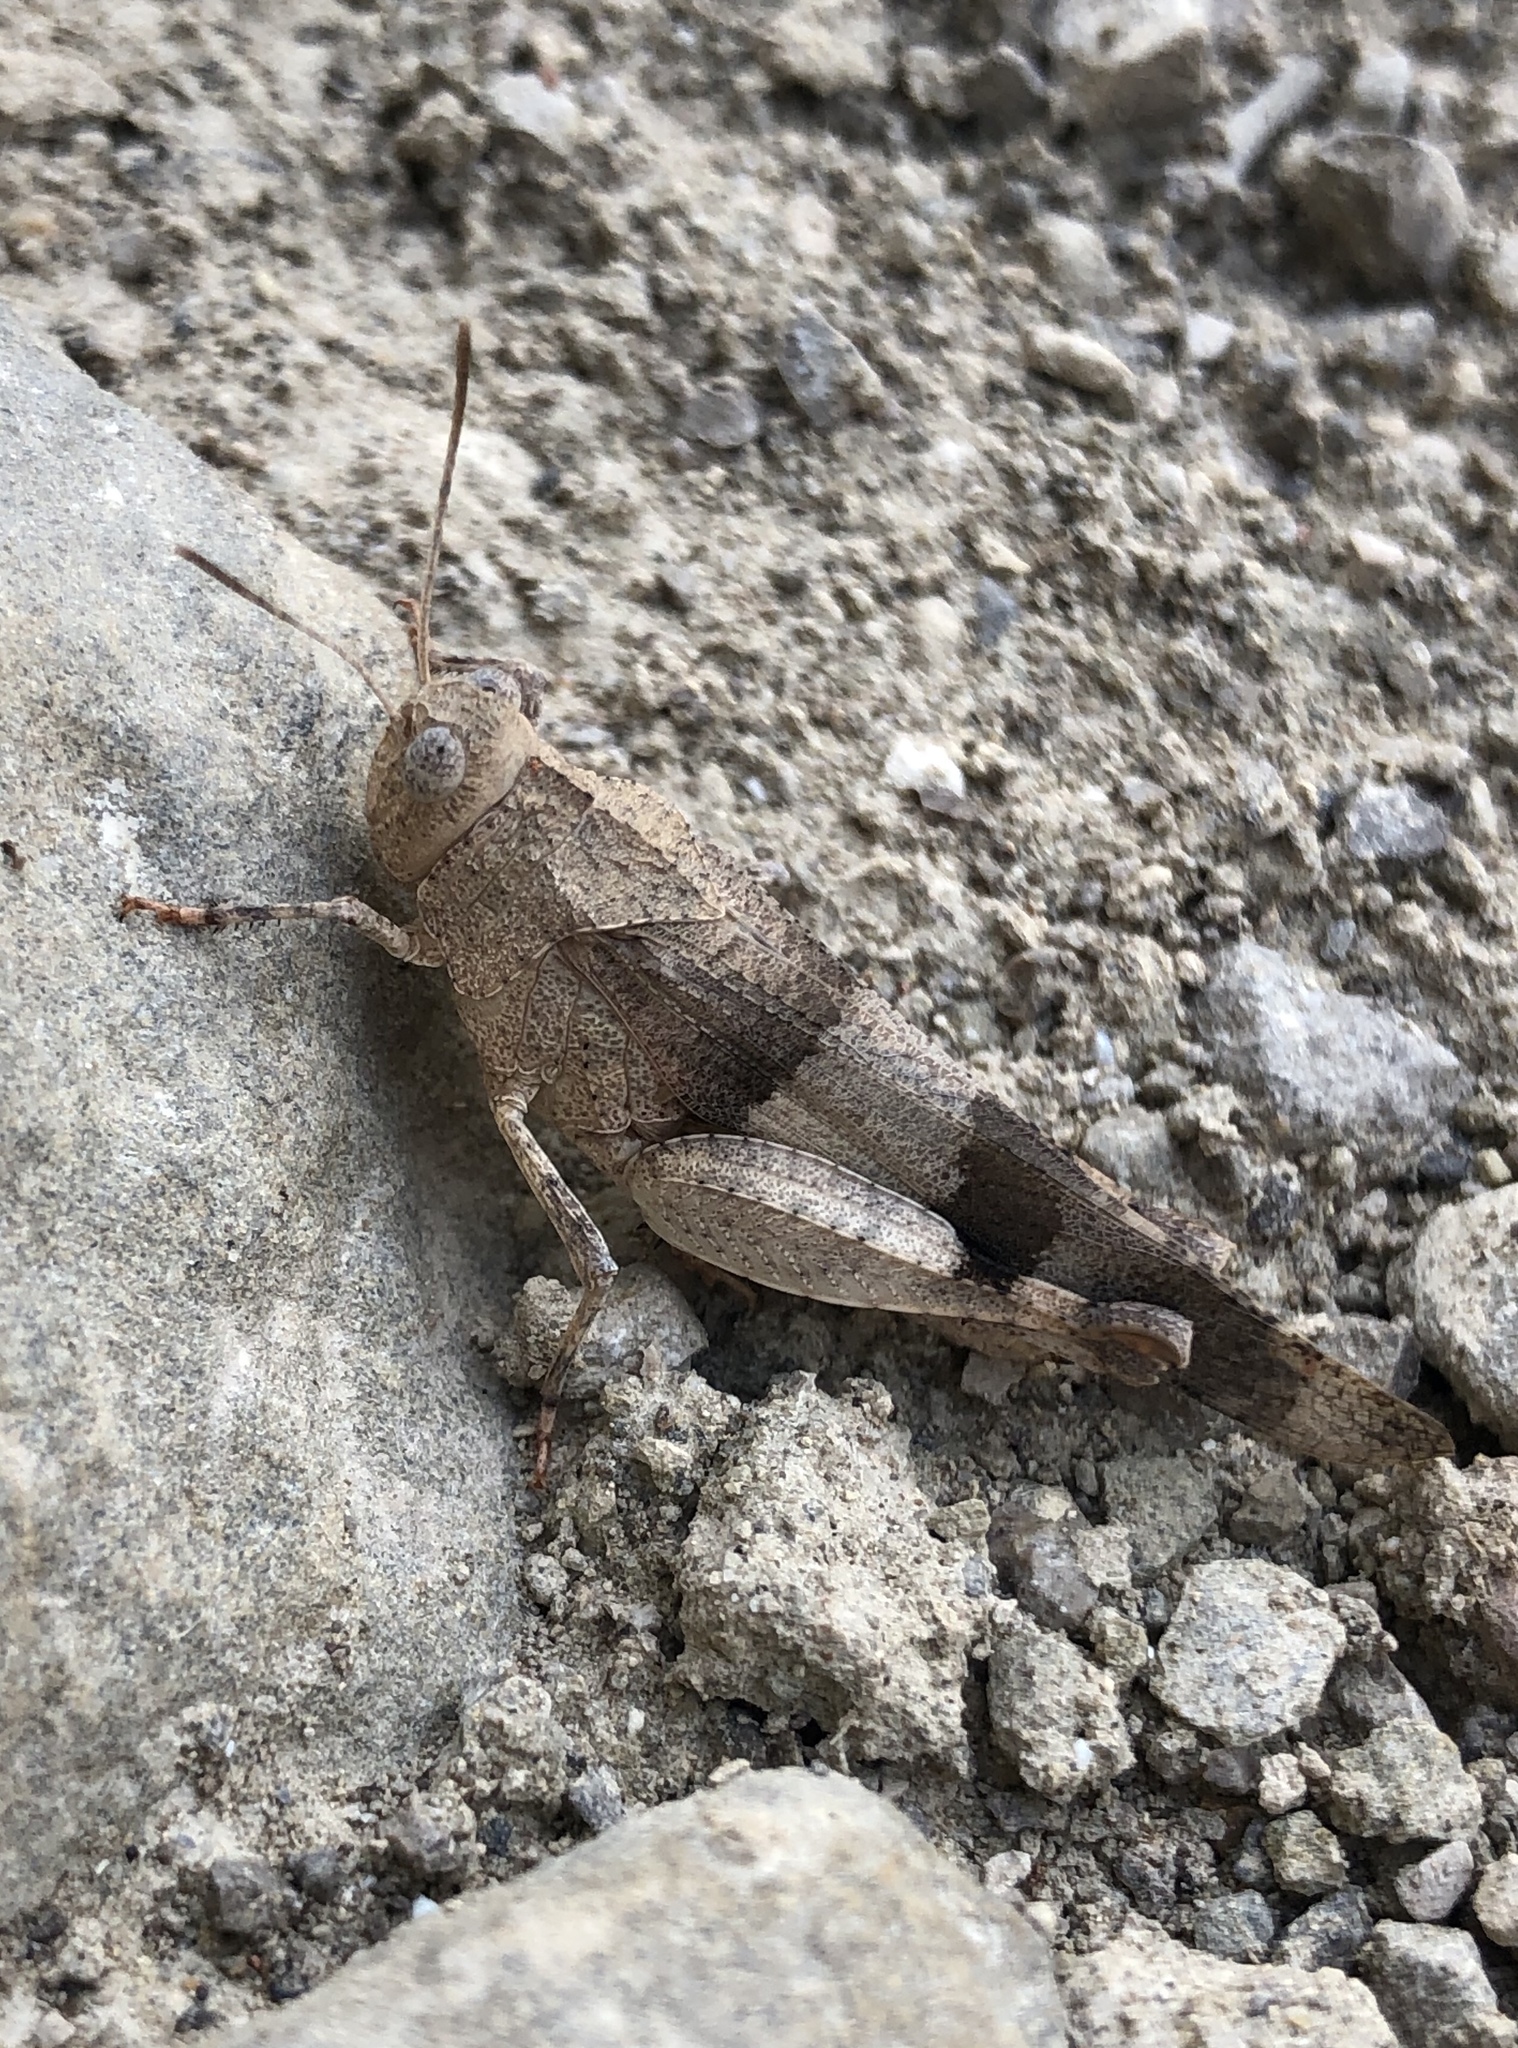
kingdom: Animalia
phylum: Arthropoda
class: Insecta
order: Orthoptera
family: Acrididae
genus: Oedipoda
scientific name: Oedipoda caerulescens
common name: Blue-winged grasshopper
